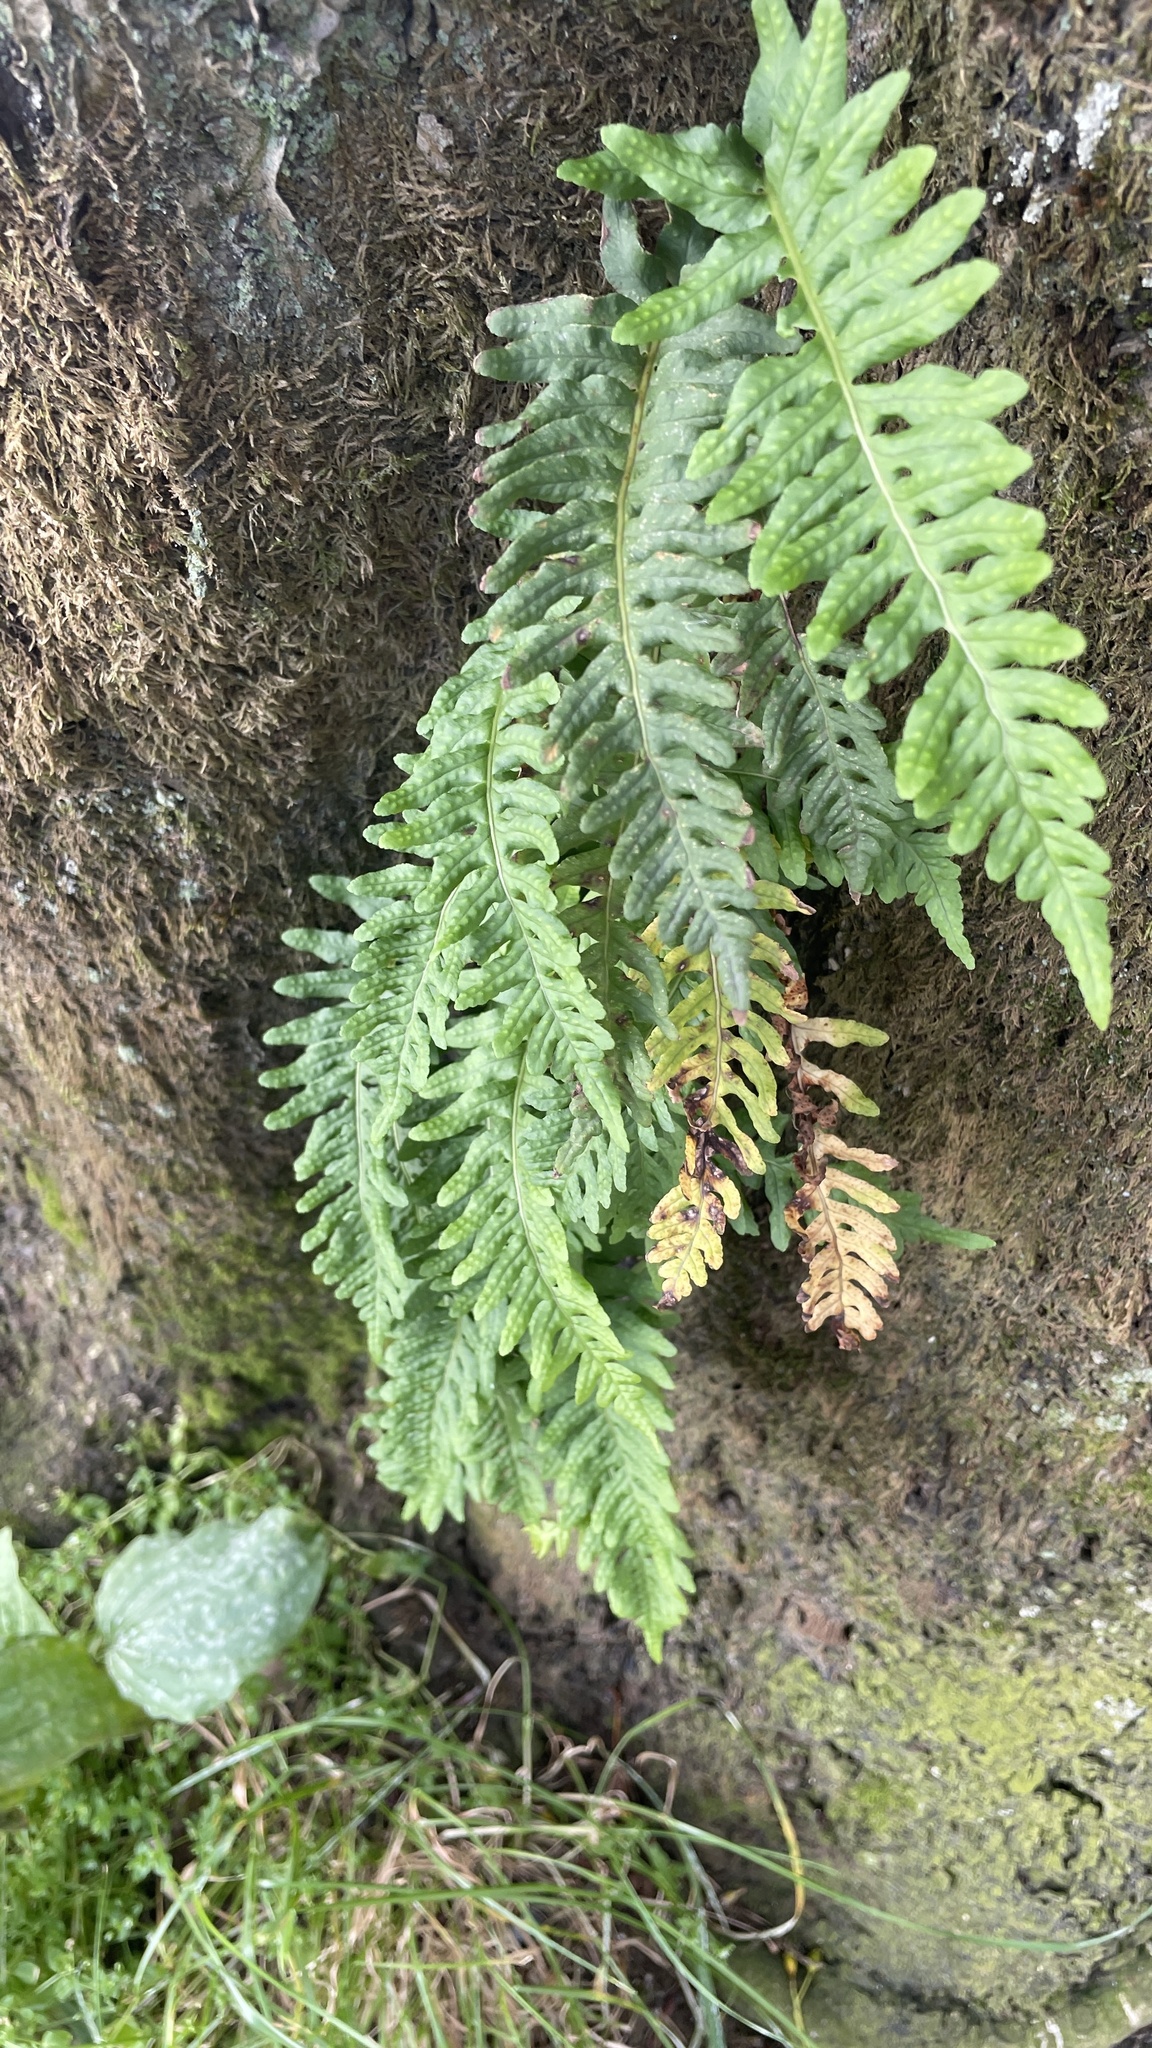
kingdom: Plantae
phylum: Tracheophyta
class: Polypodiopsida
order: Polypodiales
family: Polypodiaceae
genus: Polypodium
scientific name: Polypodium vulgare
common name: Common polypody
